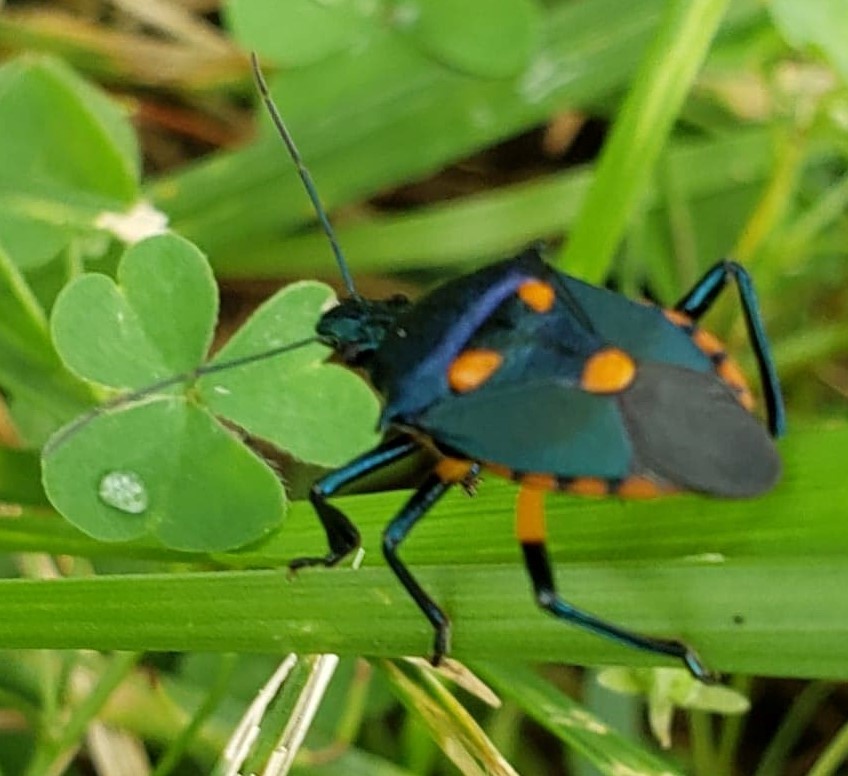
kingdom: Animalia
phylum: Arthropoda
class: Insecta
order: Hemiptera
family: Pentatomidae
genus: Euthyrhynchus
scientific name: Euthyrhynchus floridanus
